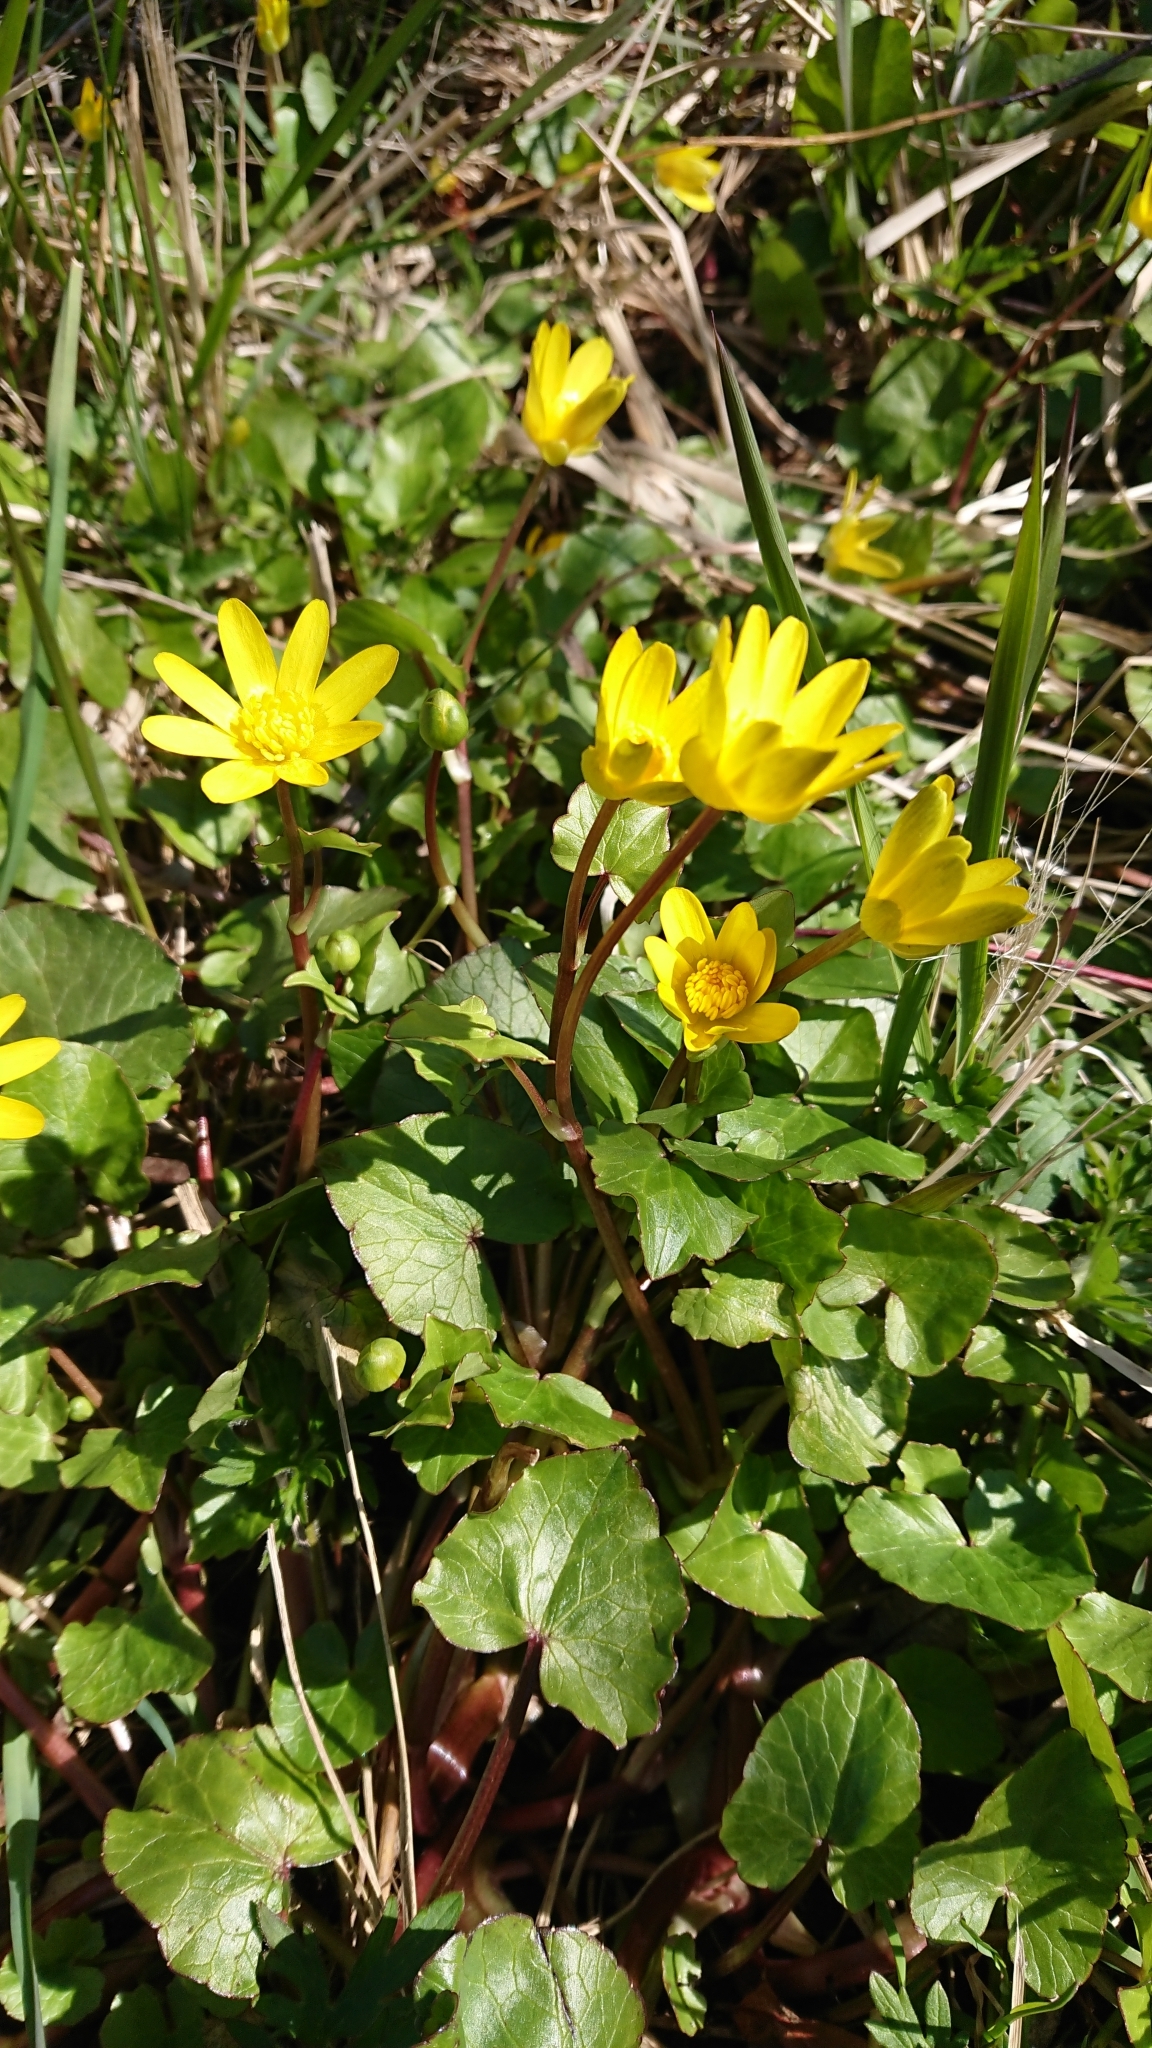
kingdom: Plantae
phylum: Tracheophyta
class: Magnoliopsida
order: Ranunculales
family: Ranunculaceae
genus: Ficaria
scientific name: Ficaria verna
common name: Lesser celandine
